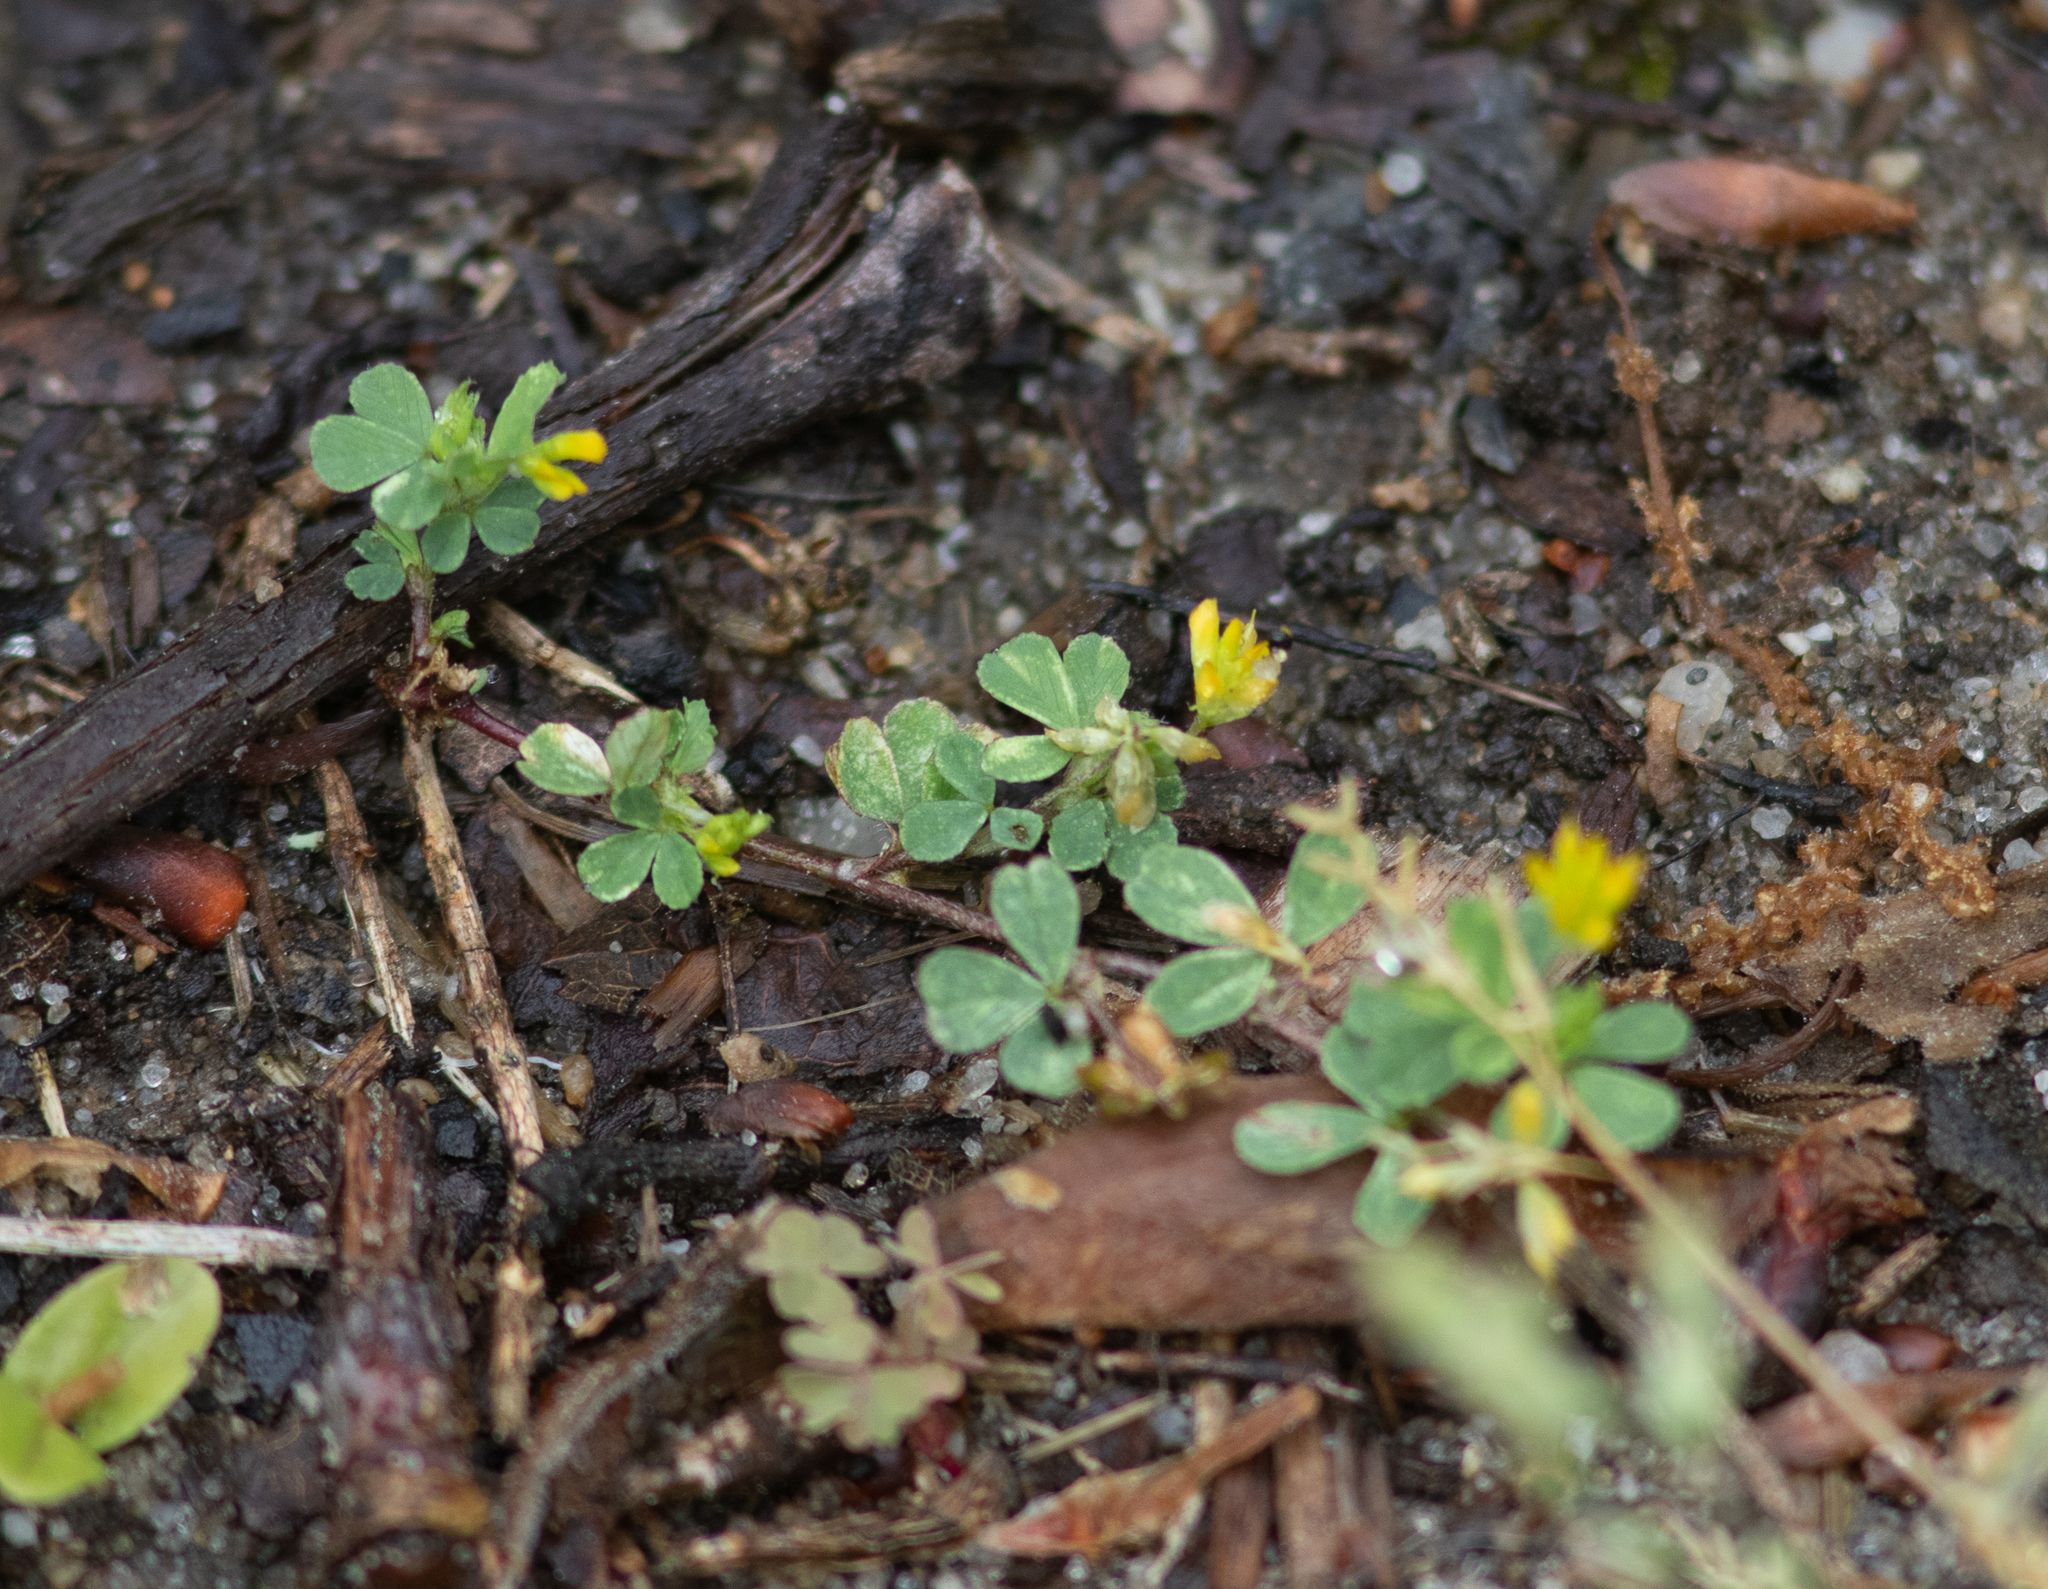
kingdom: Plantae
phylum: Tracheophyta
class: Magnoliopsida
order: Fabales
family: Fabaceae
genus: Trifolium
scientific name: Trifolium dubium
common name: Suckling clover
